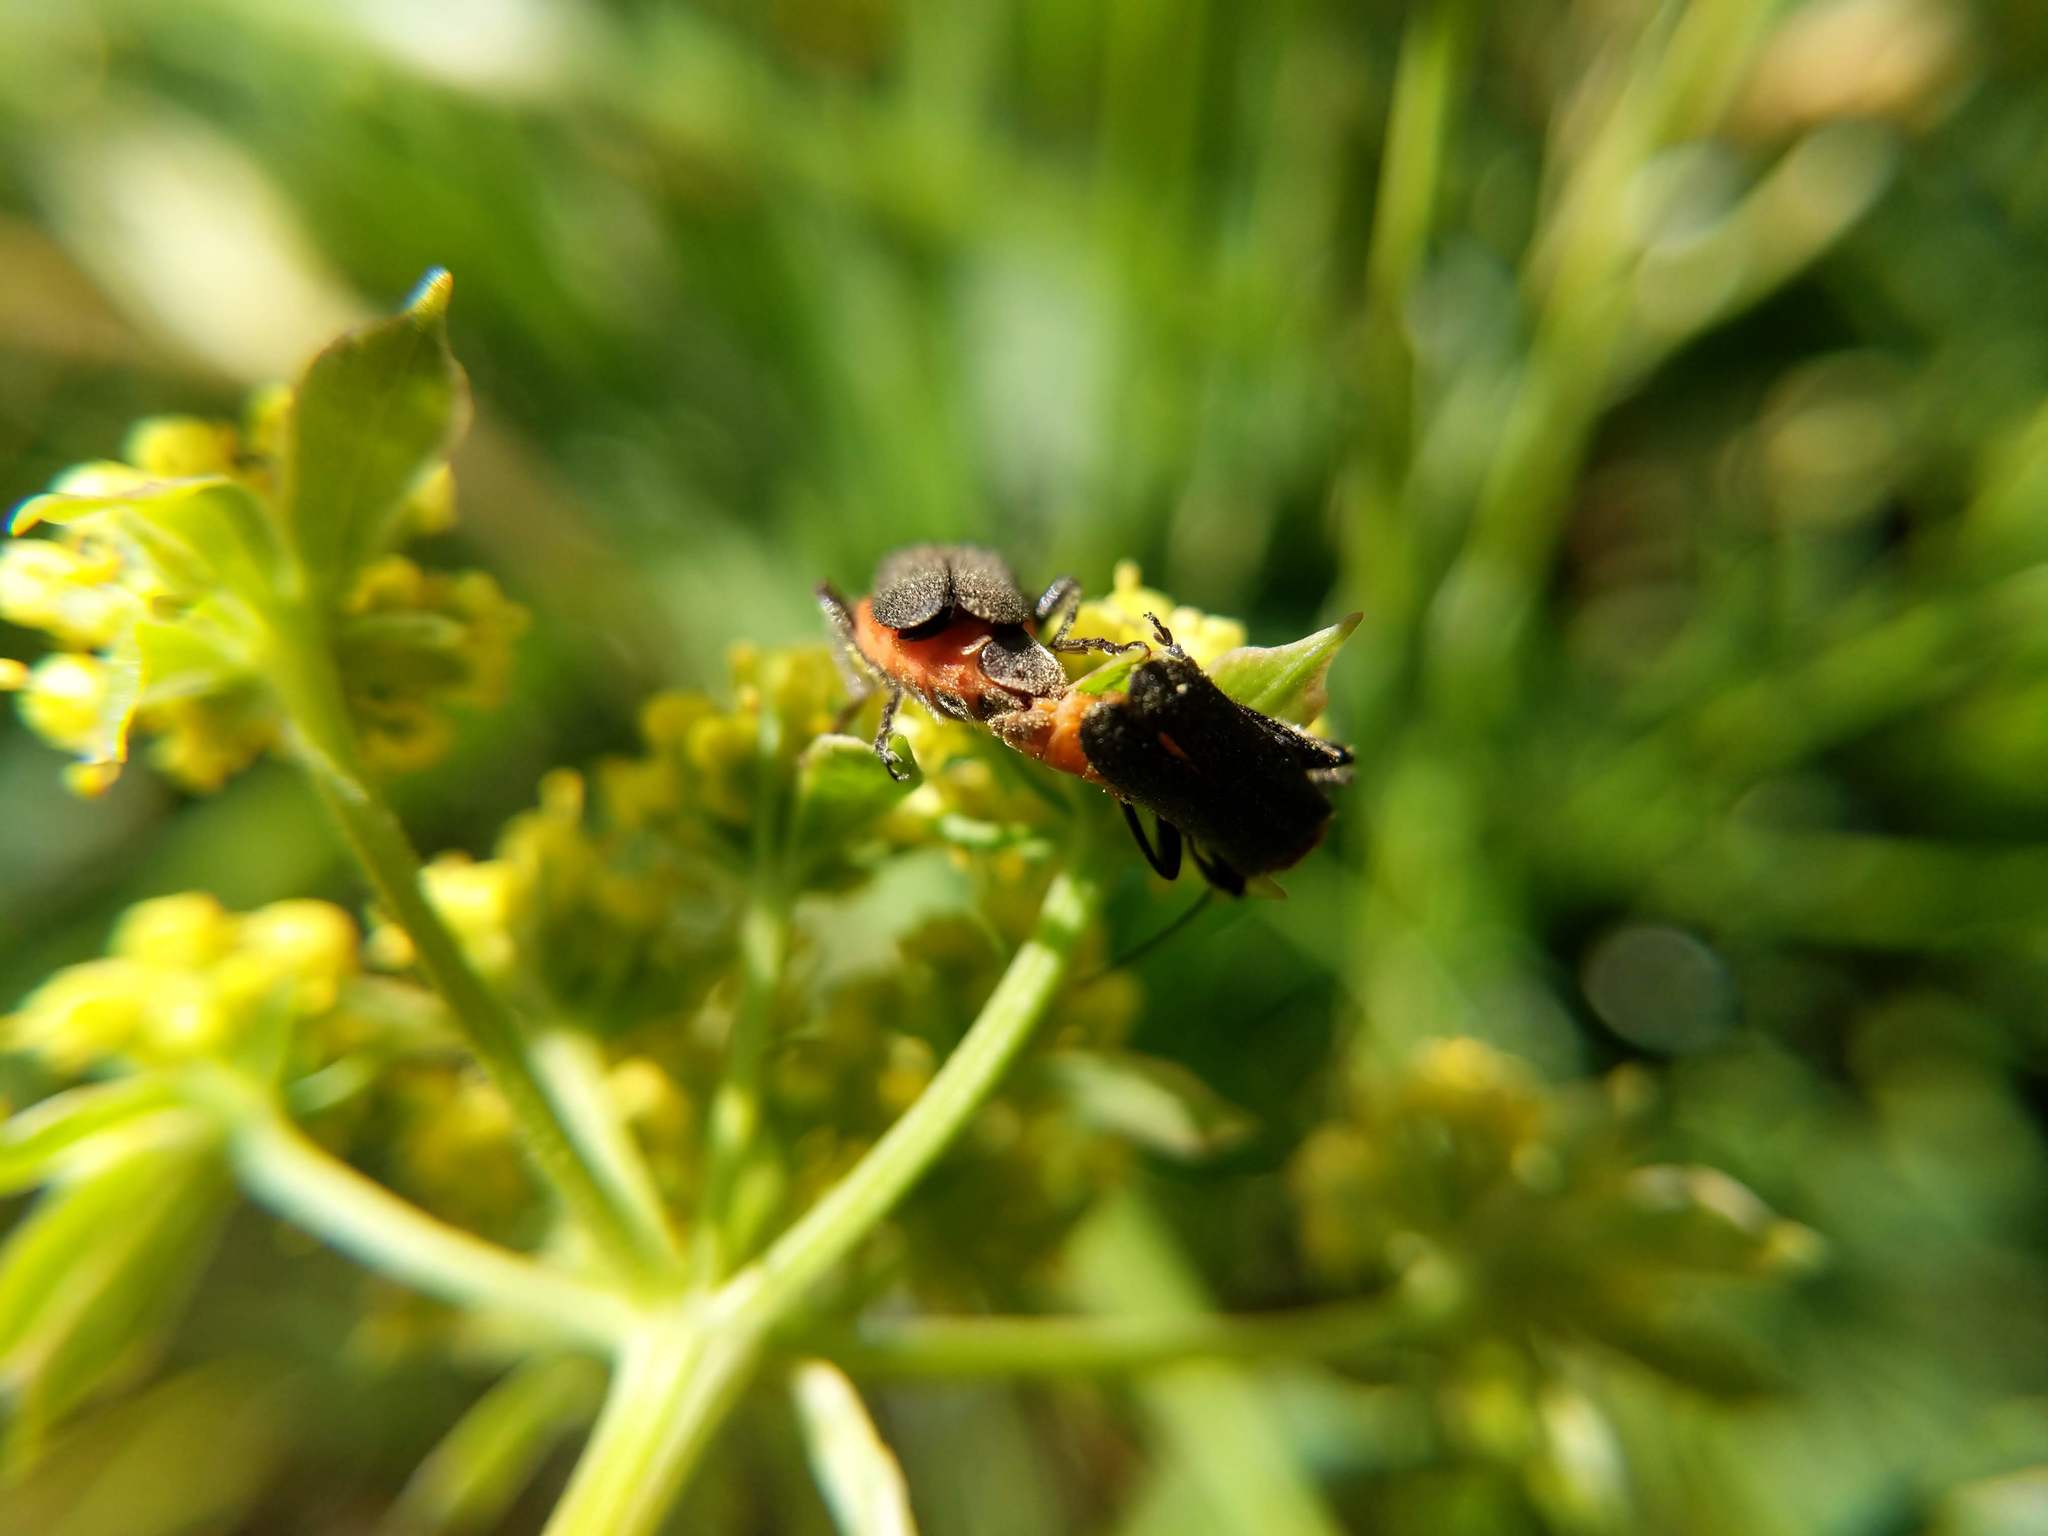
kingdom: Animalia
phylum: Arthropoda
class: Insecta
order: Coleoptera
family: Cantharidae
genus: Cultellunguis
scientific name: Cultellunguis ingenuus
